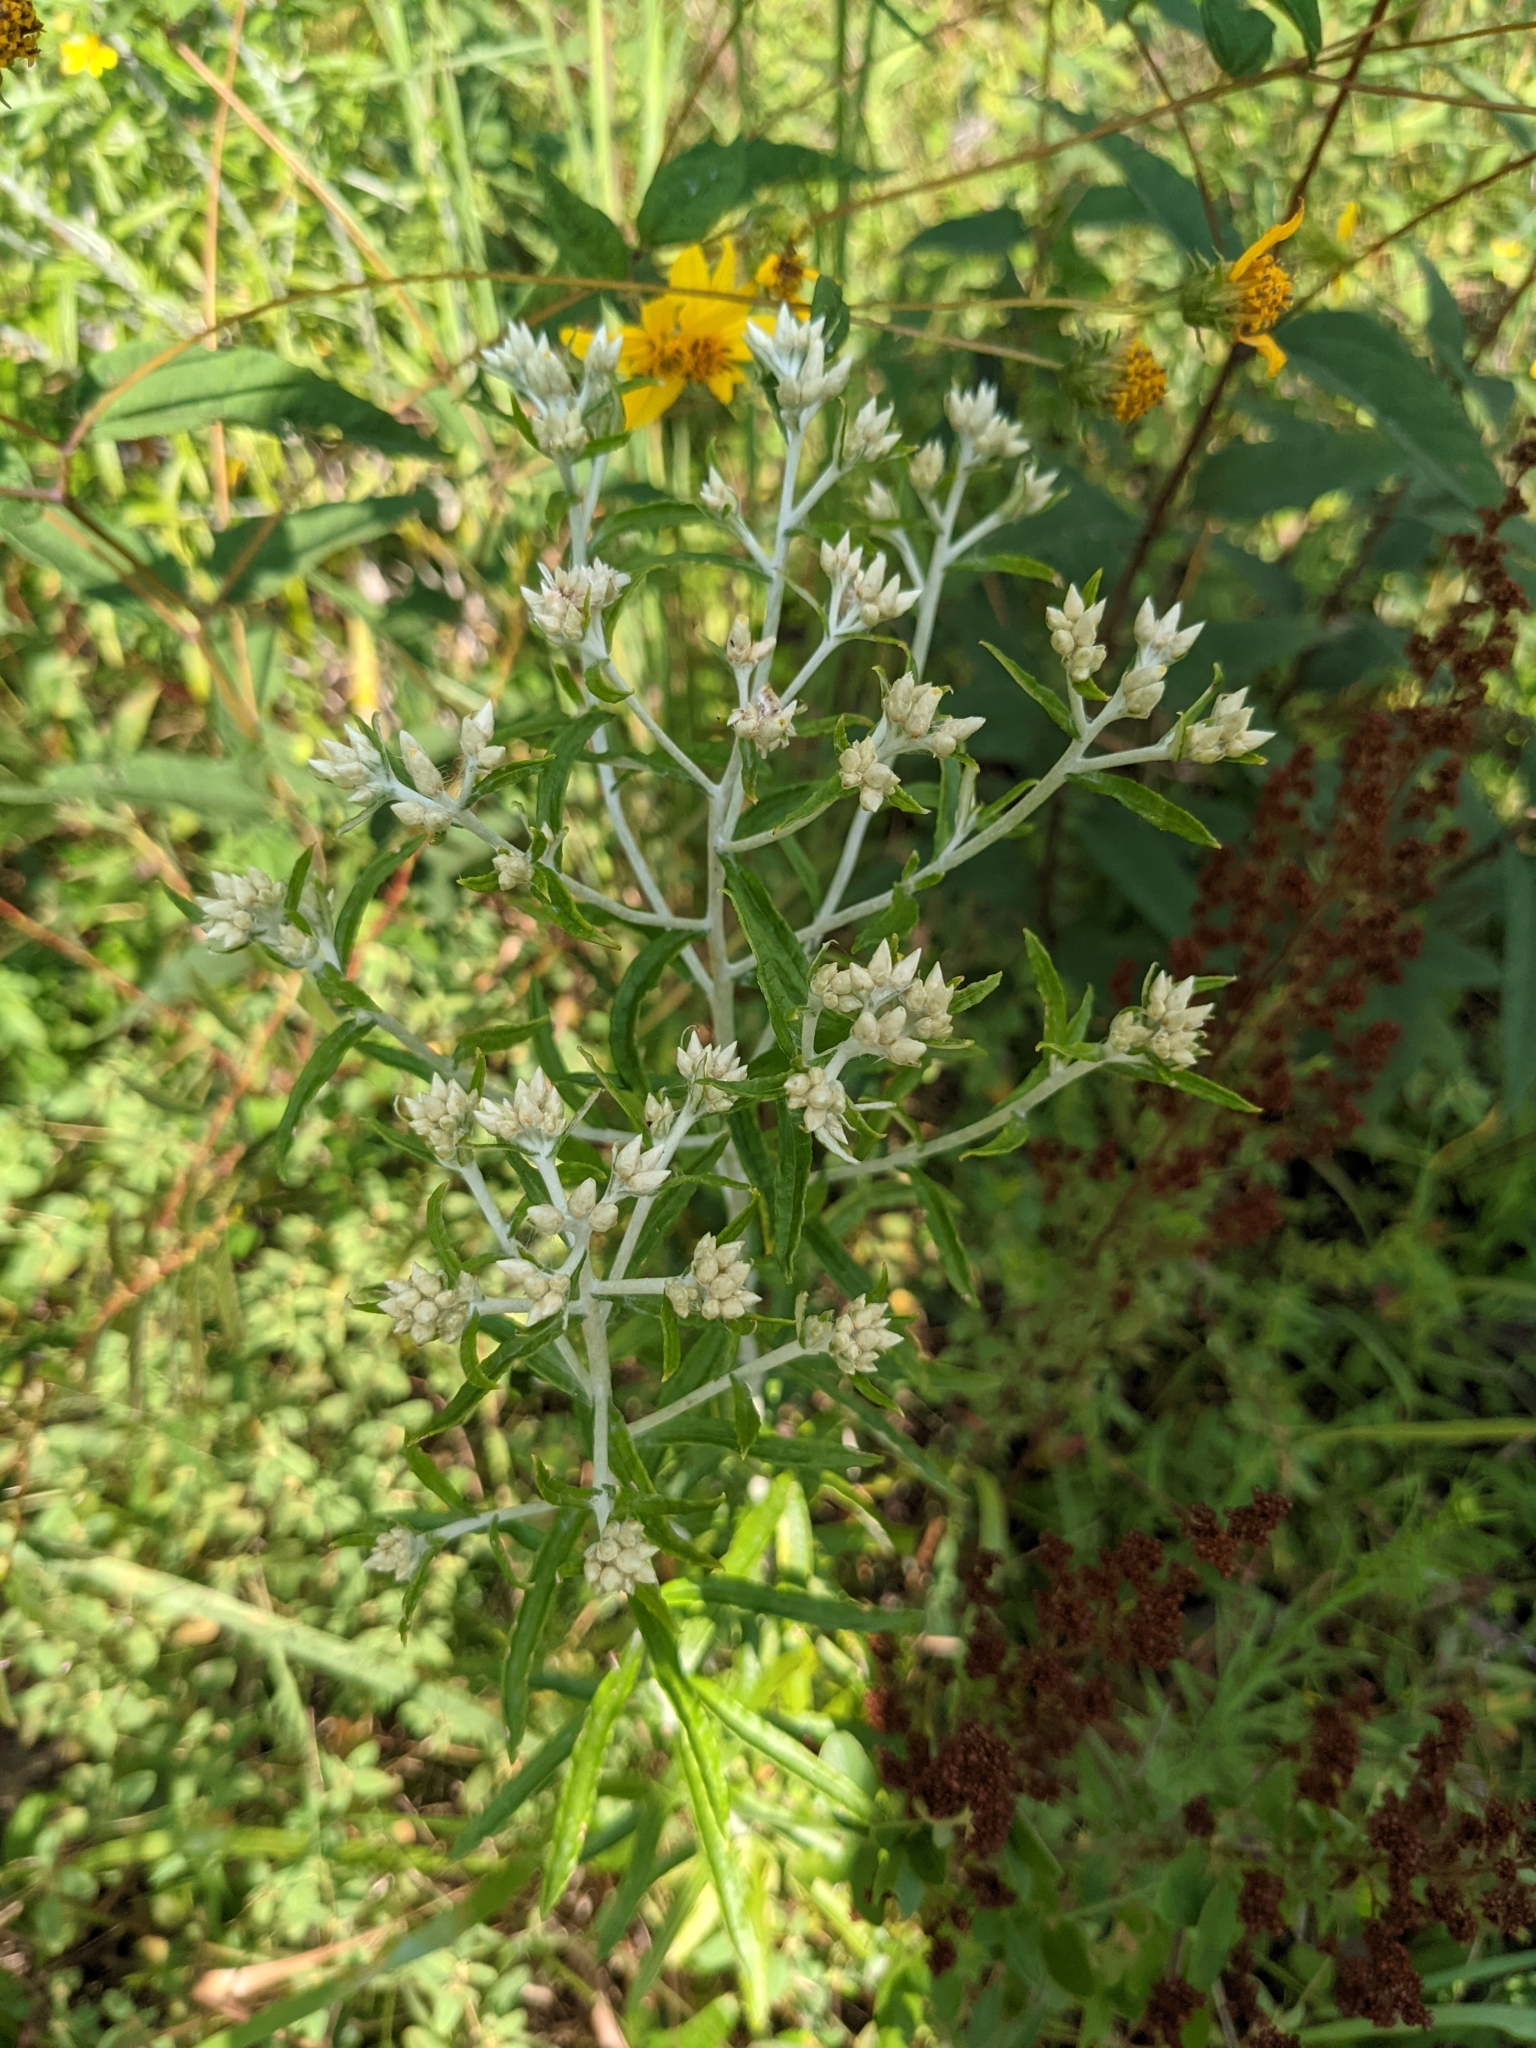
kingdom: Plantae
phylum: Tracheophyta
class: Magnoliopsida
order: Asterales
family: Asteraceae
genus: Pseudognaphalium
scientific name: Pseudognaphalium obtusifolium
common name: Eastern rabbit-tobacco
